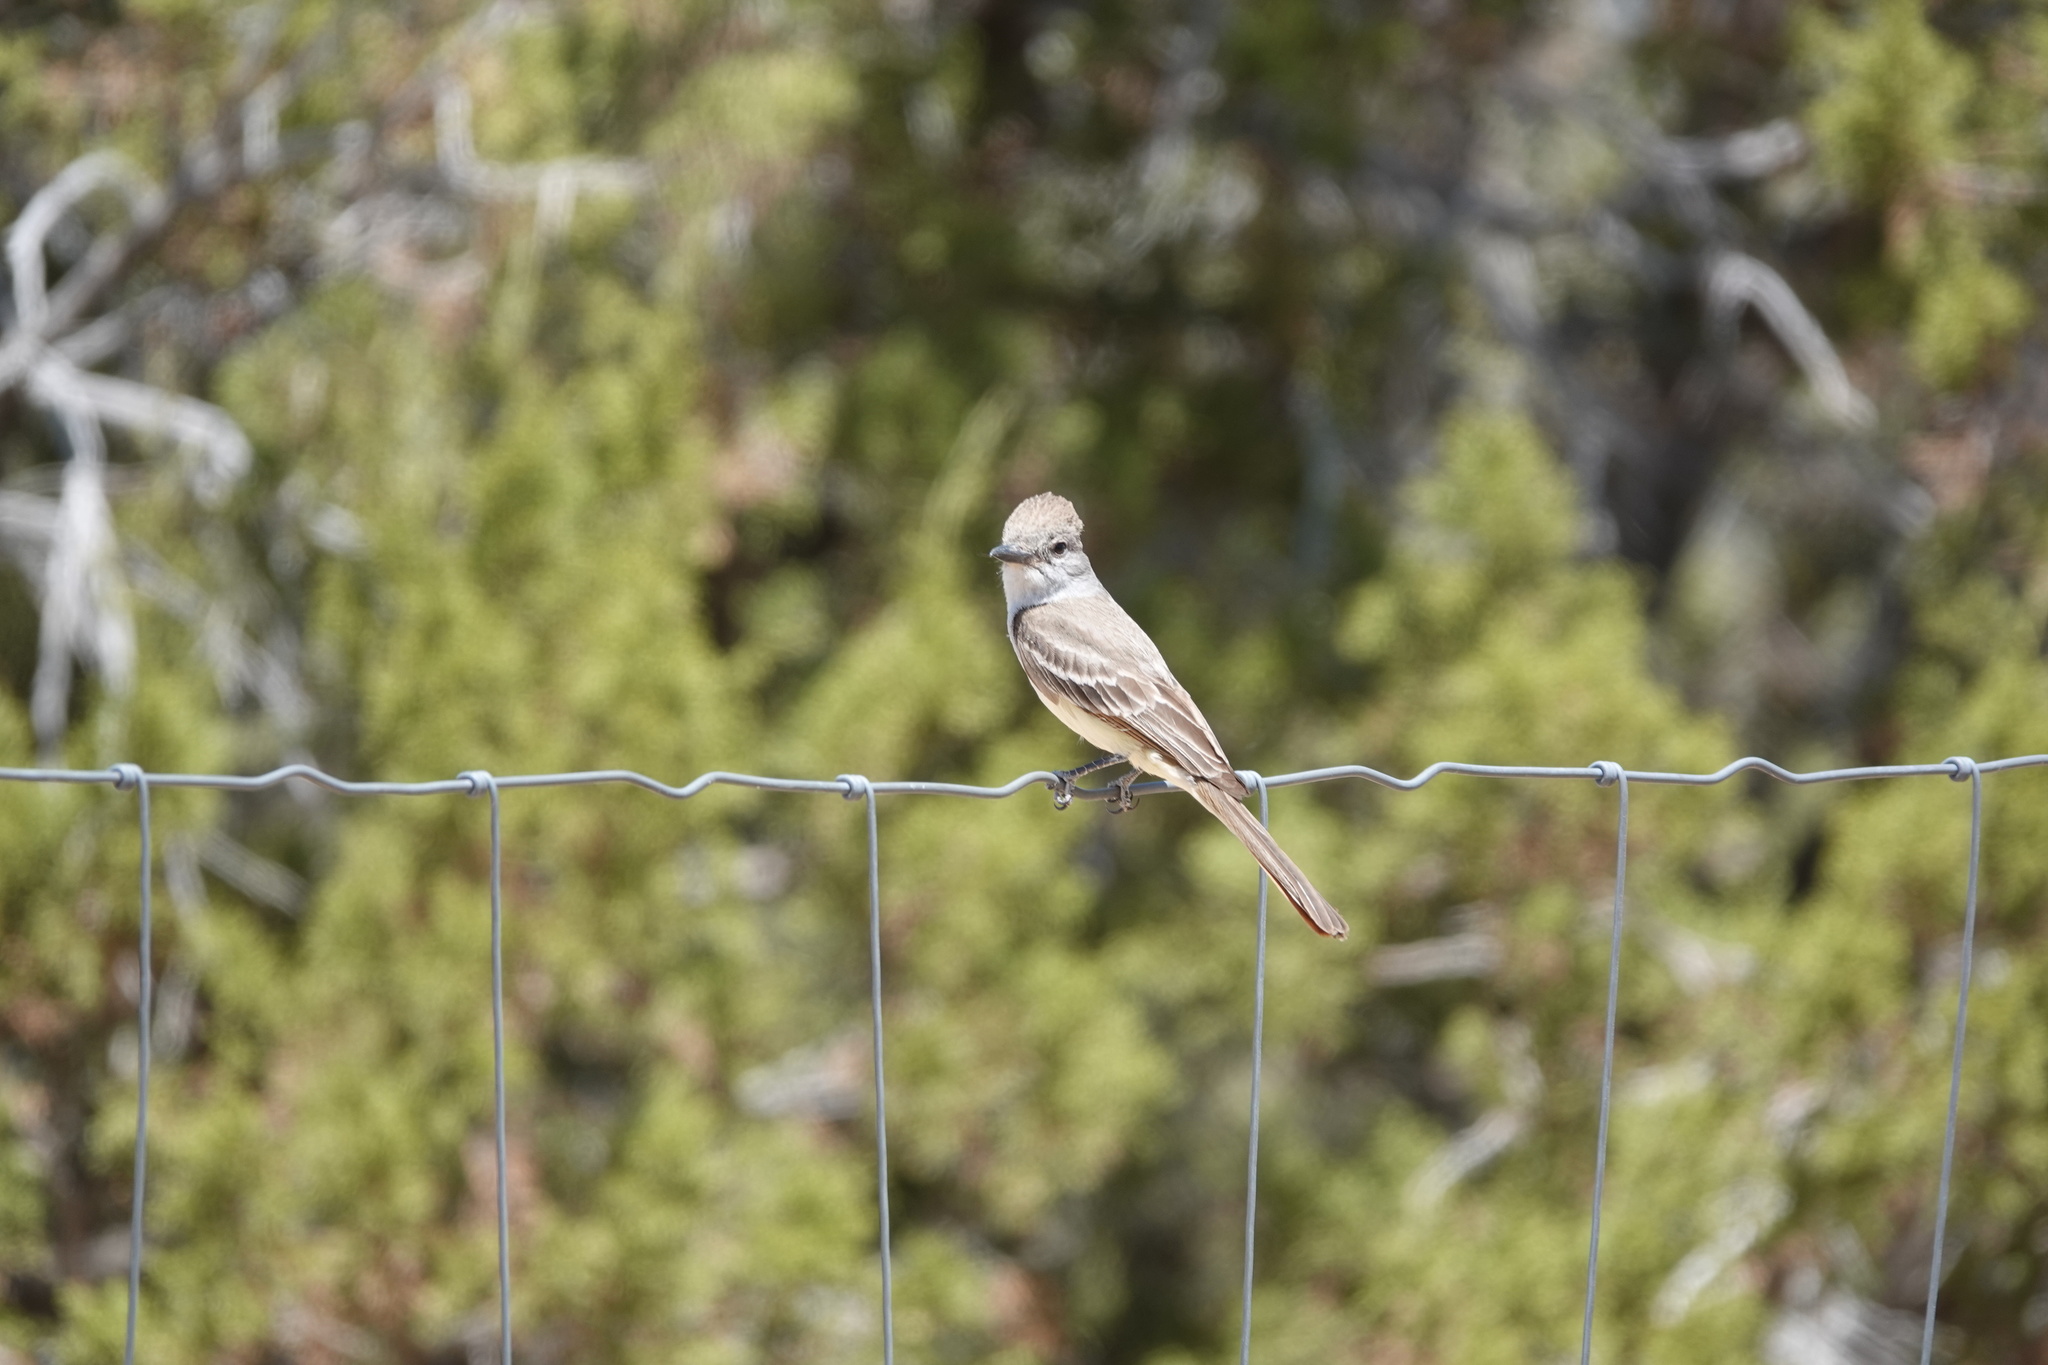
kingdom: Animalia
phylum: Chordata
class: Aves
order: Passeriformes
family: Tyrannidae
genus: Myiarchus
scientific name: Myiarchus cinerascens
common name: Ash-throated flycatcher
